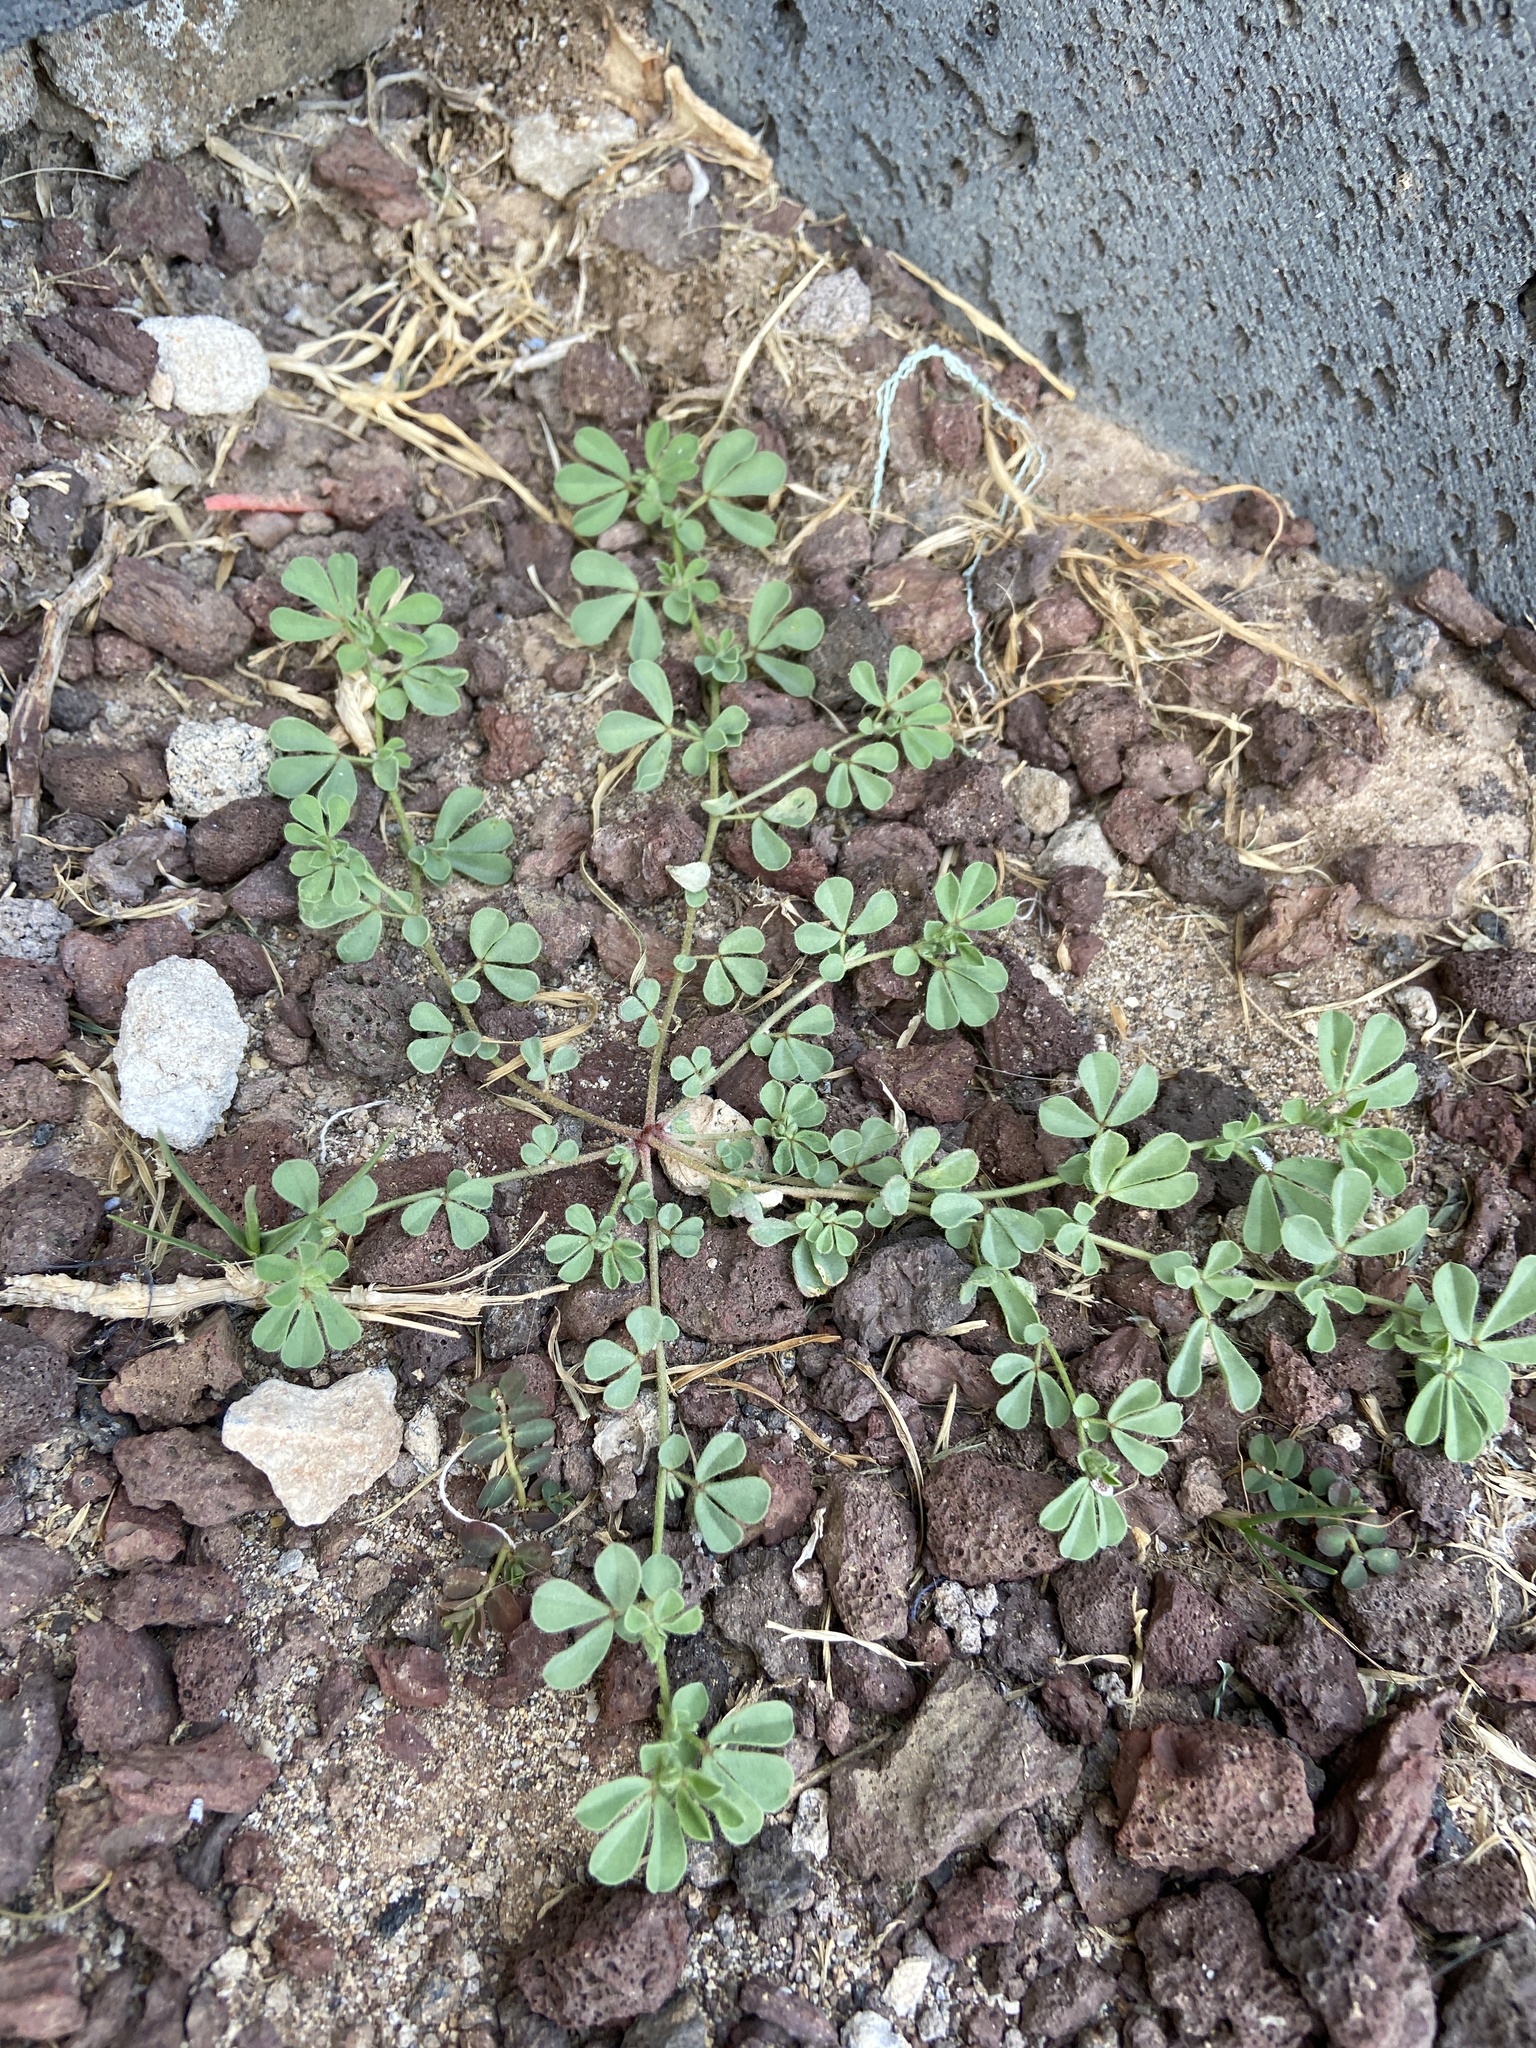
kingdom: Plantae
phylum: Tracheophyta
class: Magnoliopsida
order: Fabales
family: Fabaceae
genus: Lotus
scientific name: Lotus lancerottensis
